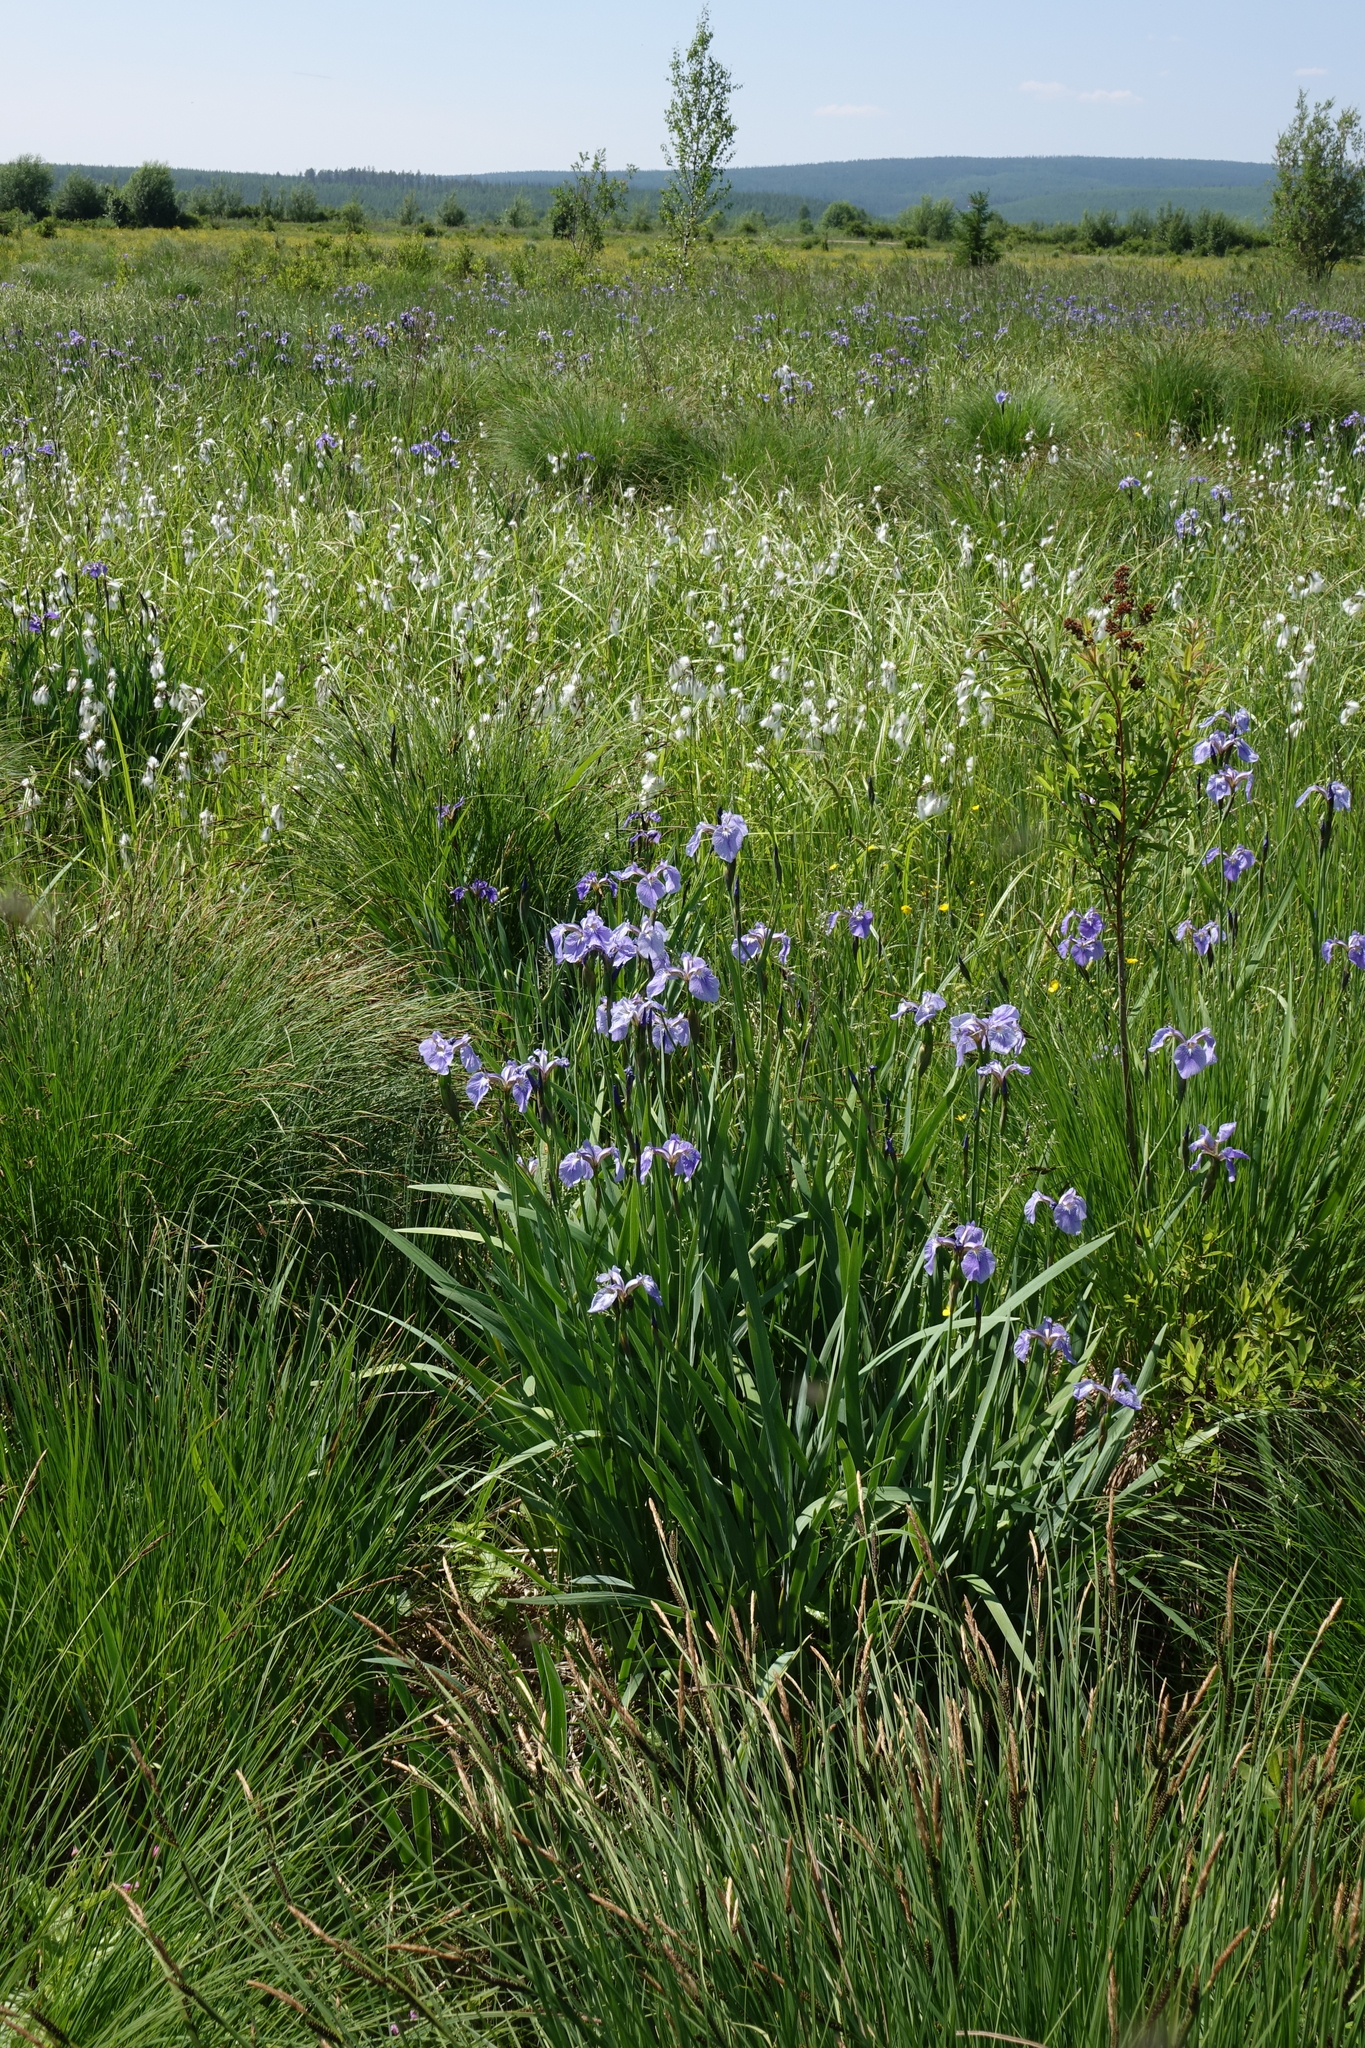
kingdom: Plantae
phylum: Tracheophyta
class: Liliopsida
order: Asparagales
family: Iridaceae
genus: Iris
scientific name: Iris setosa
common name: Arctic blue flag
